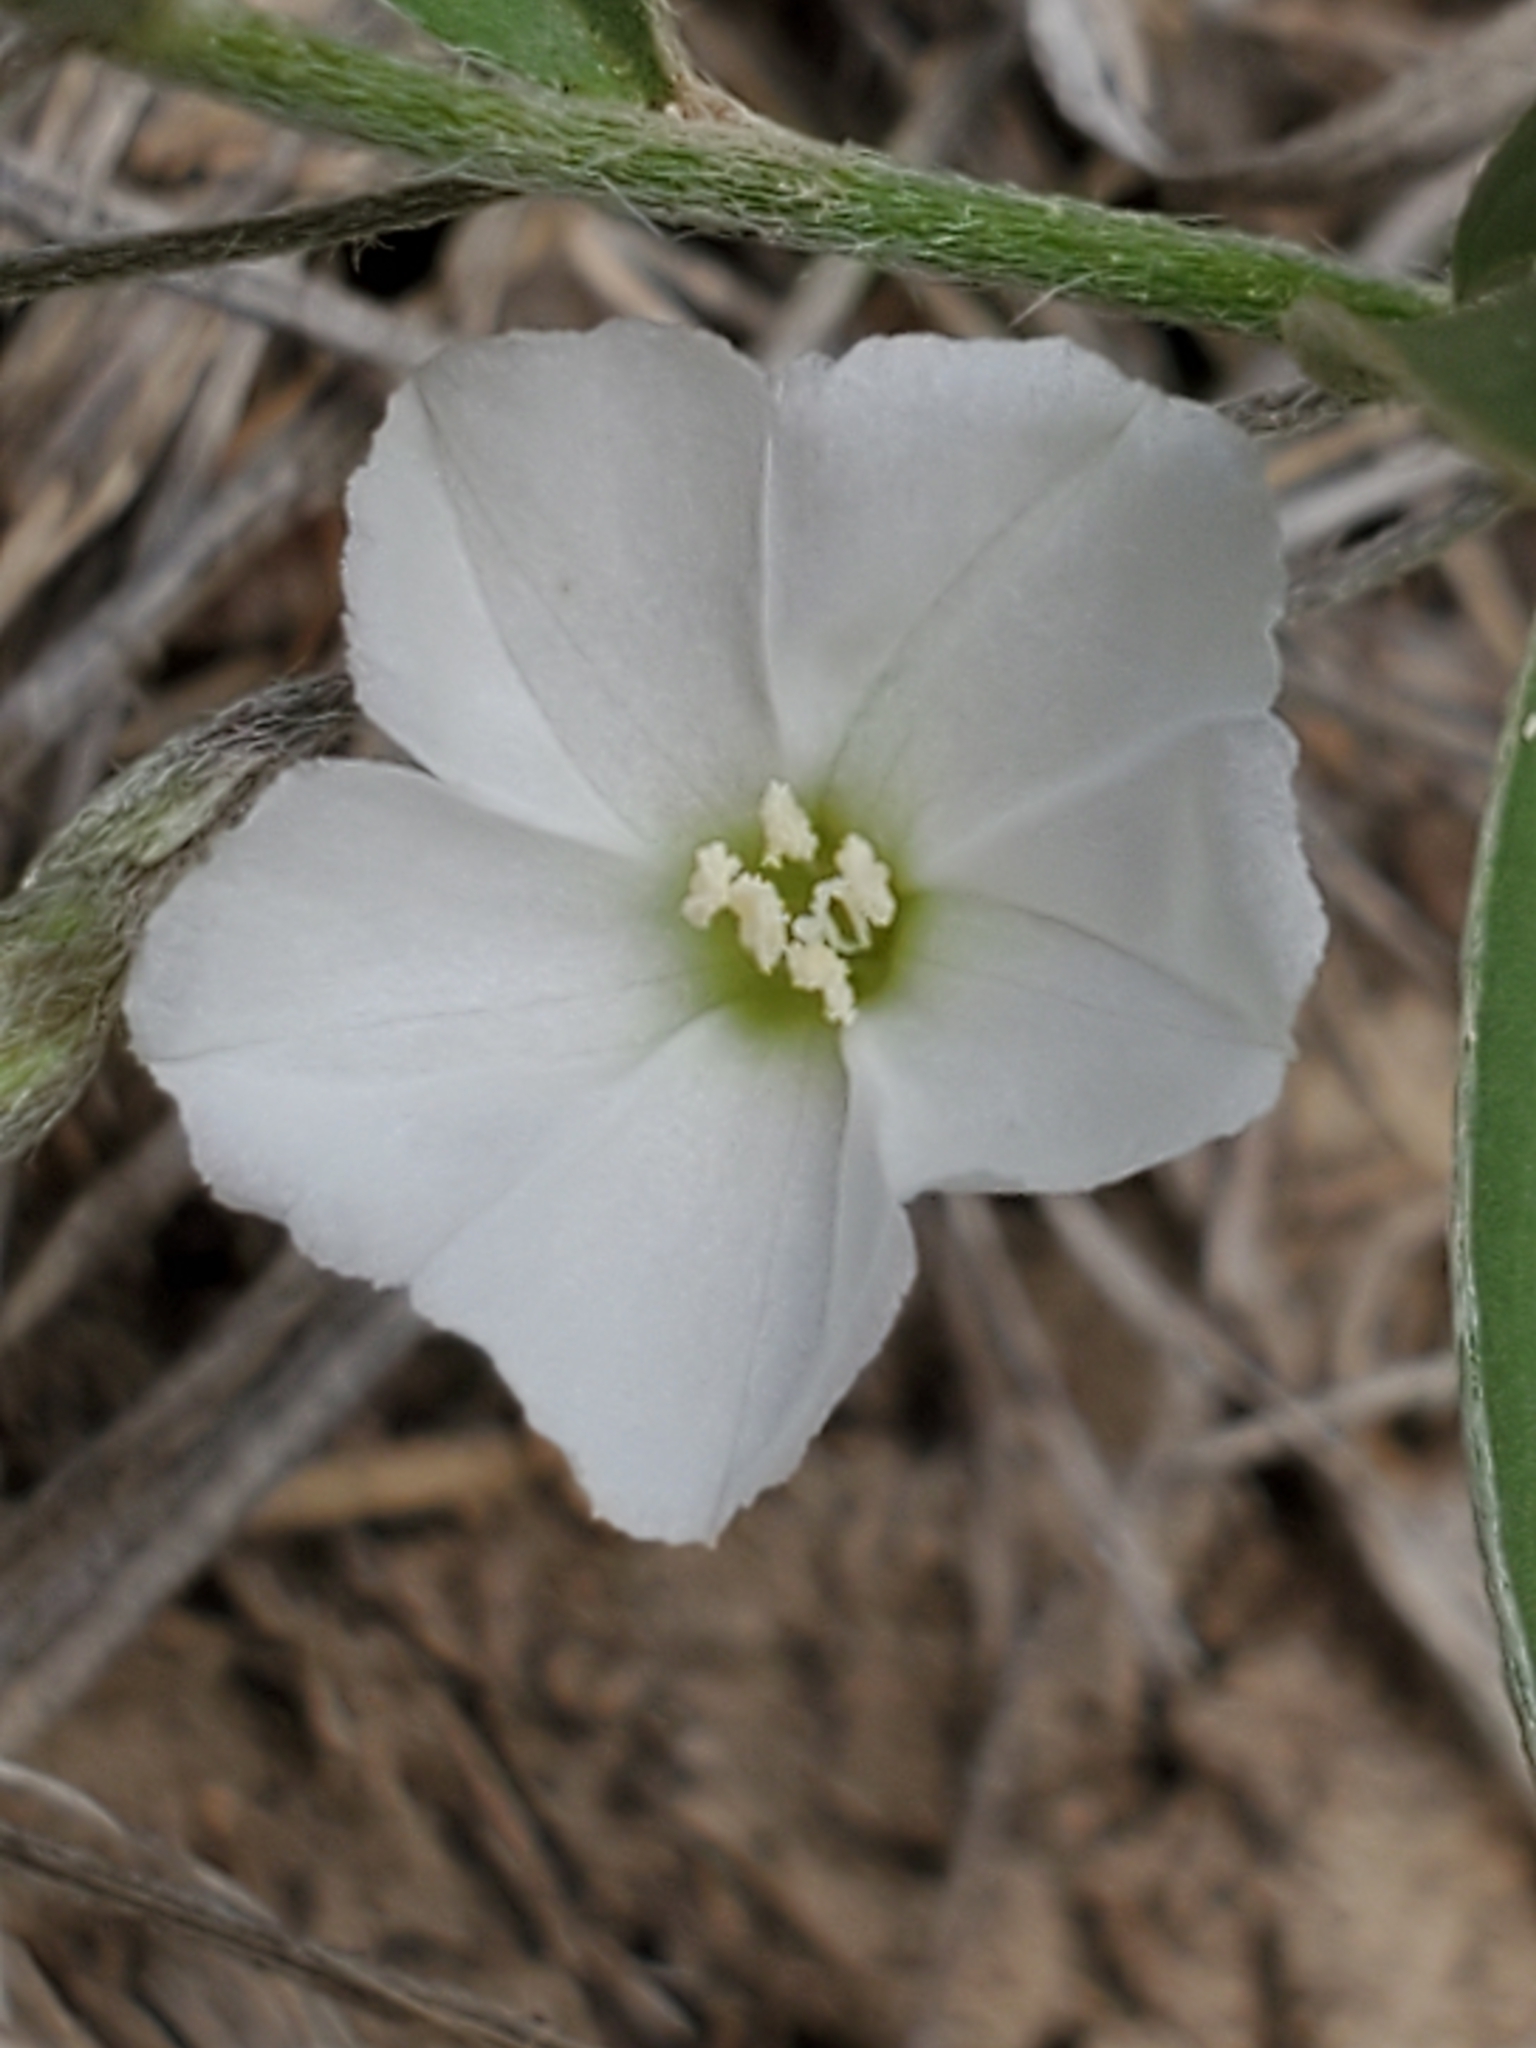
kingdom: Plantae
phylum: Tracheophyta
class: Magnoliopsida
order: Solanales
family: Convolvulaceae
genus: Evolvulus
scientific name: Evolvulus sericeus
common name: Blue dots
